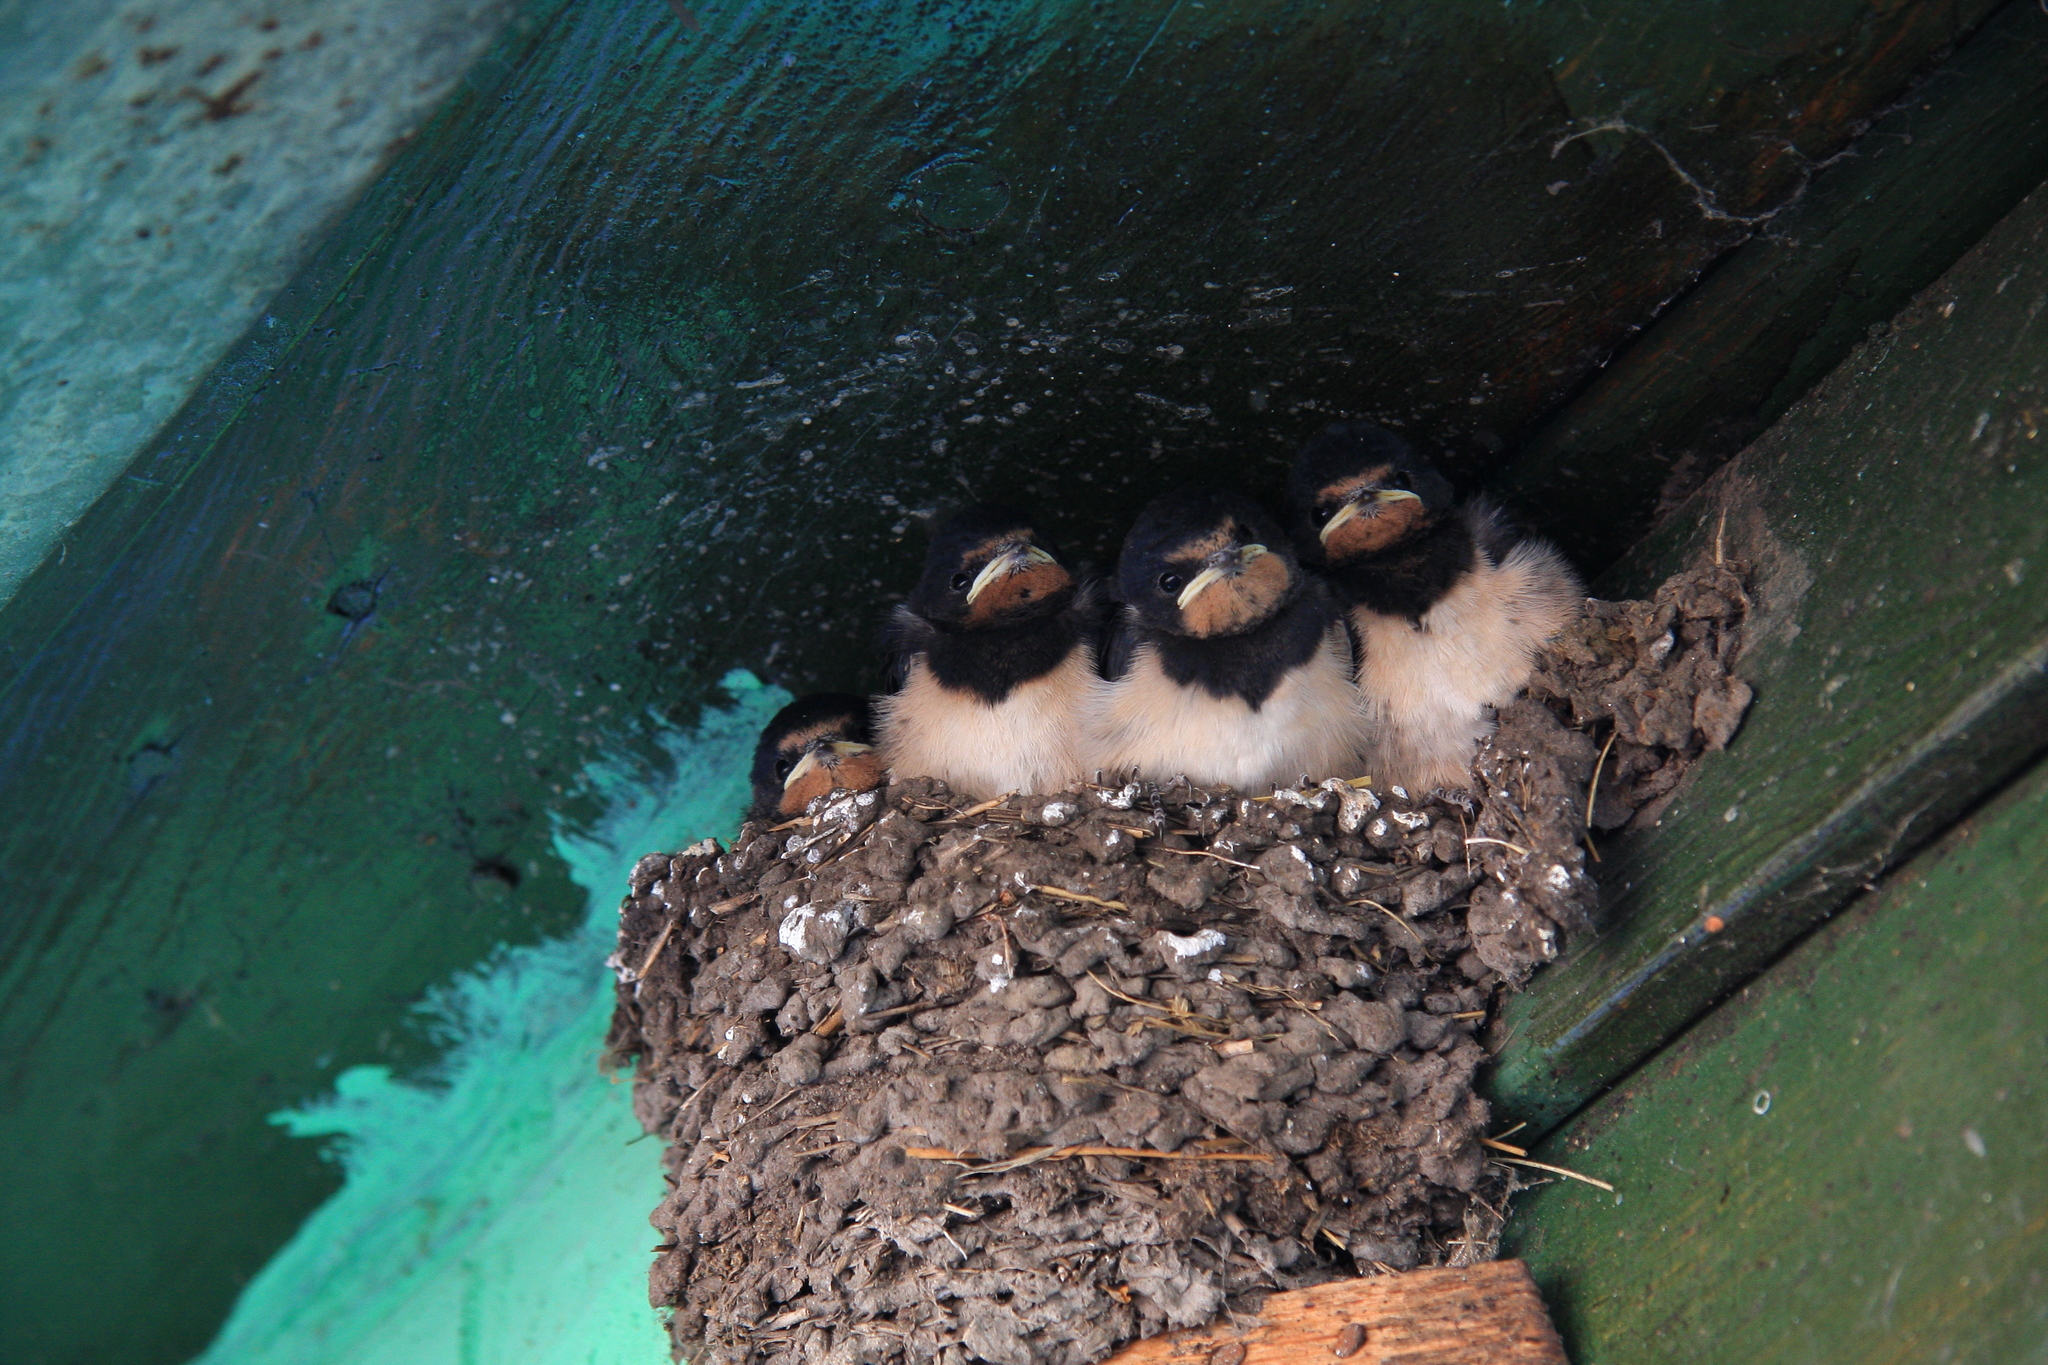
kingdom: Animalia
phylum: Chordata
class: Aves
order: Passeriformes
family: Hirundinidae
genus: Hirundo
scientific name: Hirundo rustica
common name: Barn swallow
